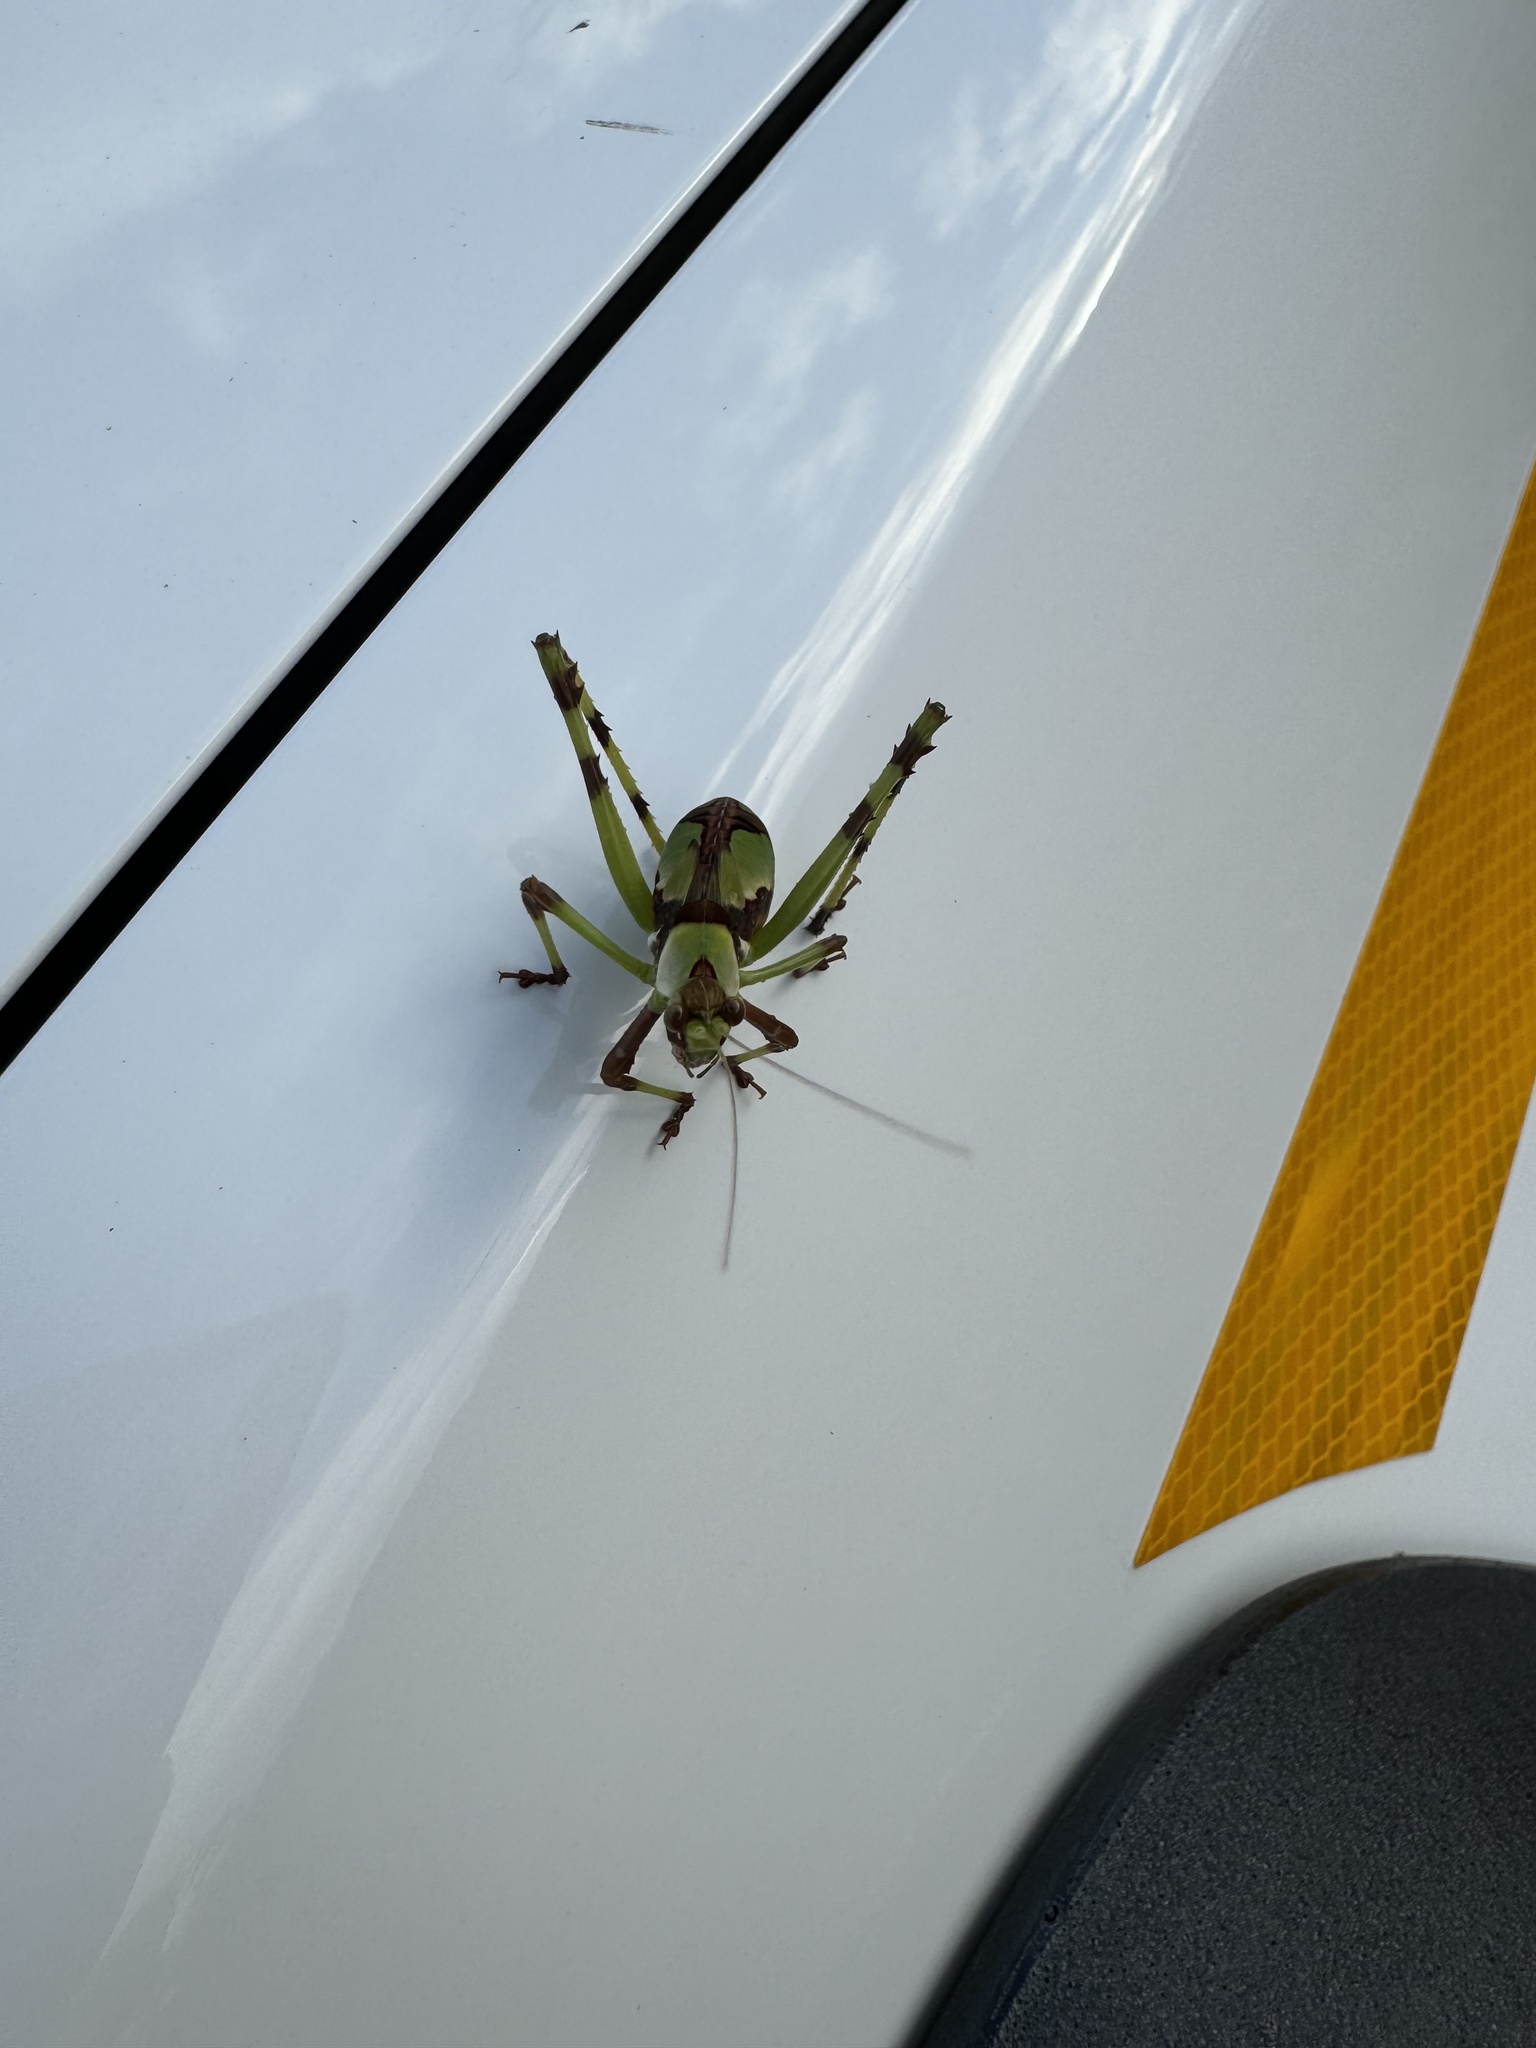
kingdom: Animalia
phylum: Arthropoda
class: Insecta
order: Orthoptera
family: Tettigoniidae
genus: Ephippitytha
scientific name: Ephippitytha trigintiduoguttata
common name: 32-spotted katydid
